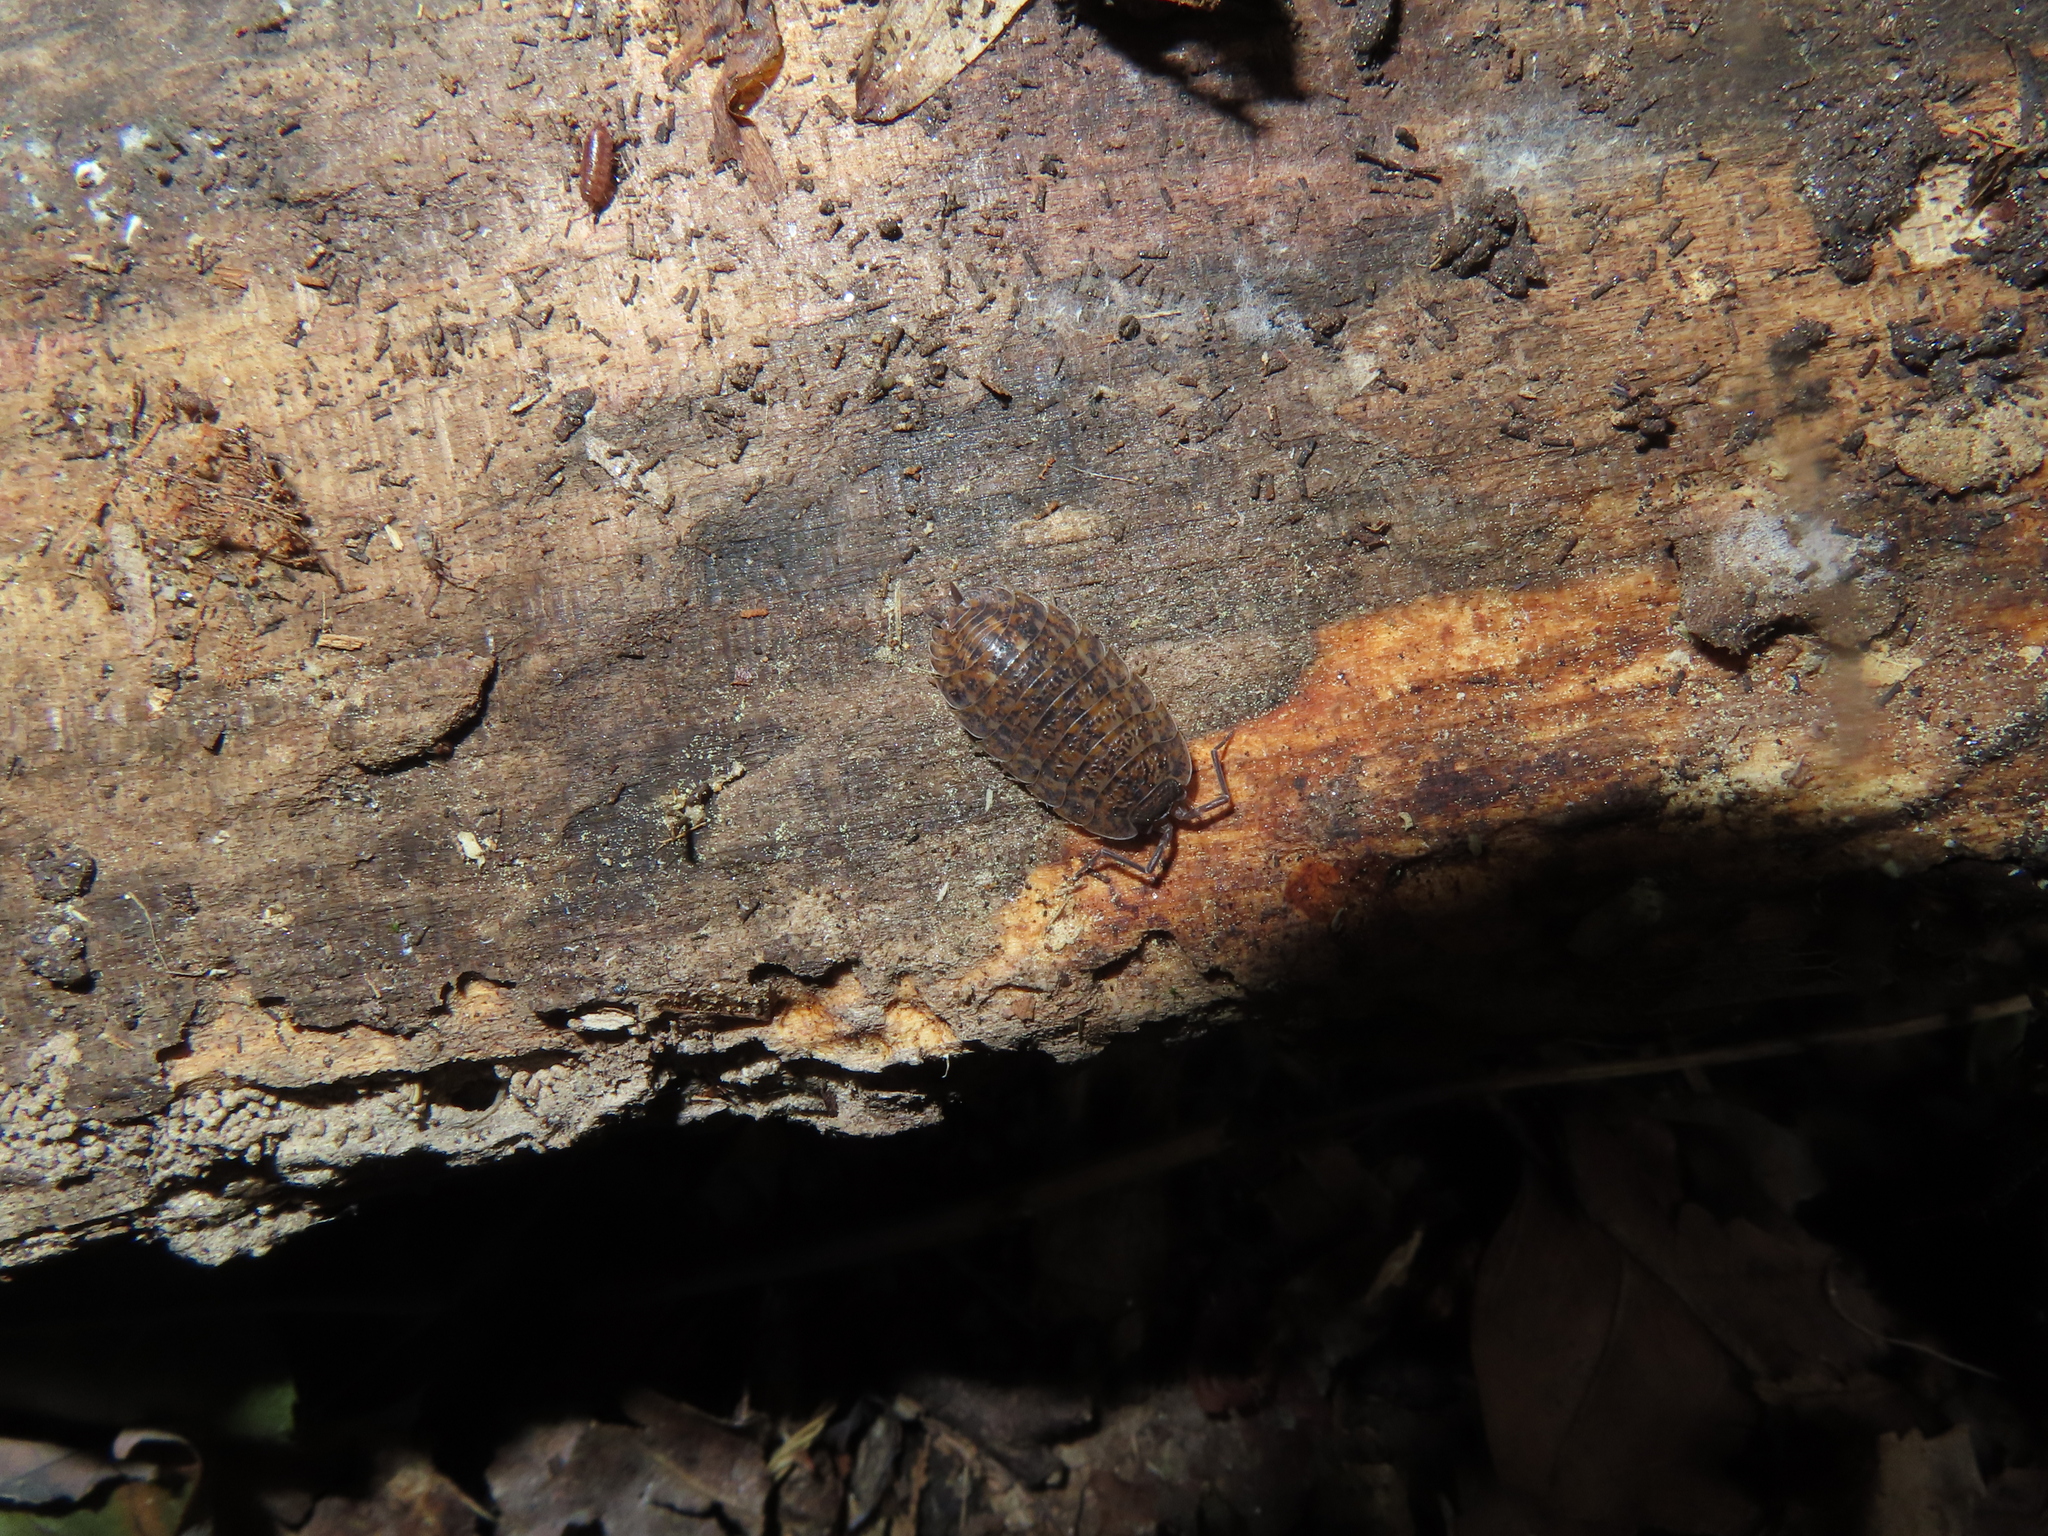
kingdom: Animalia
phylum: Arthropoda
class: Malacostraca
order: Isopoda
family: Trachelipodidae
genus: Trachelipus
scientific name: Trachelipus rathkii
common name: Isopod
